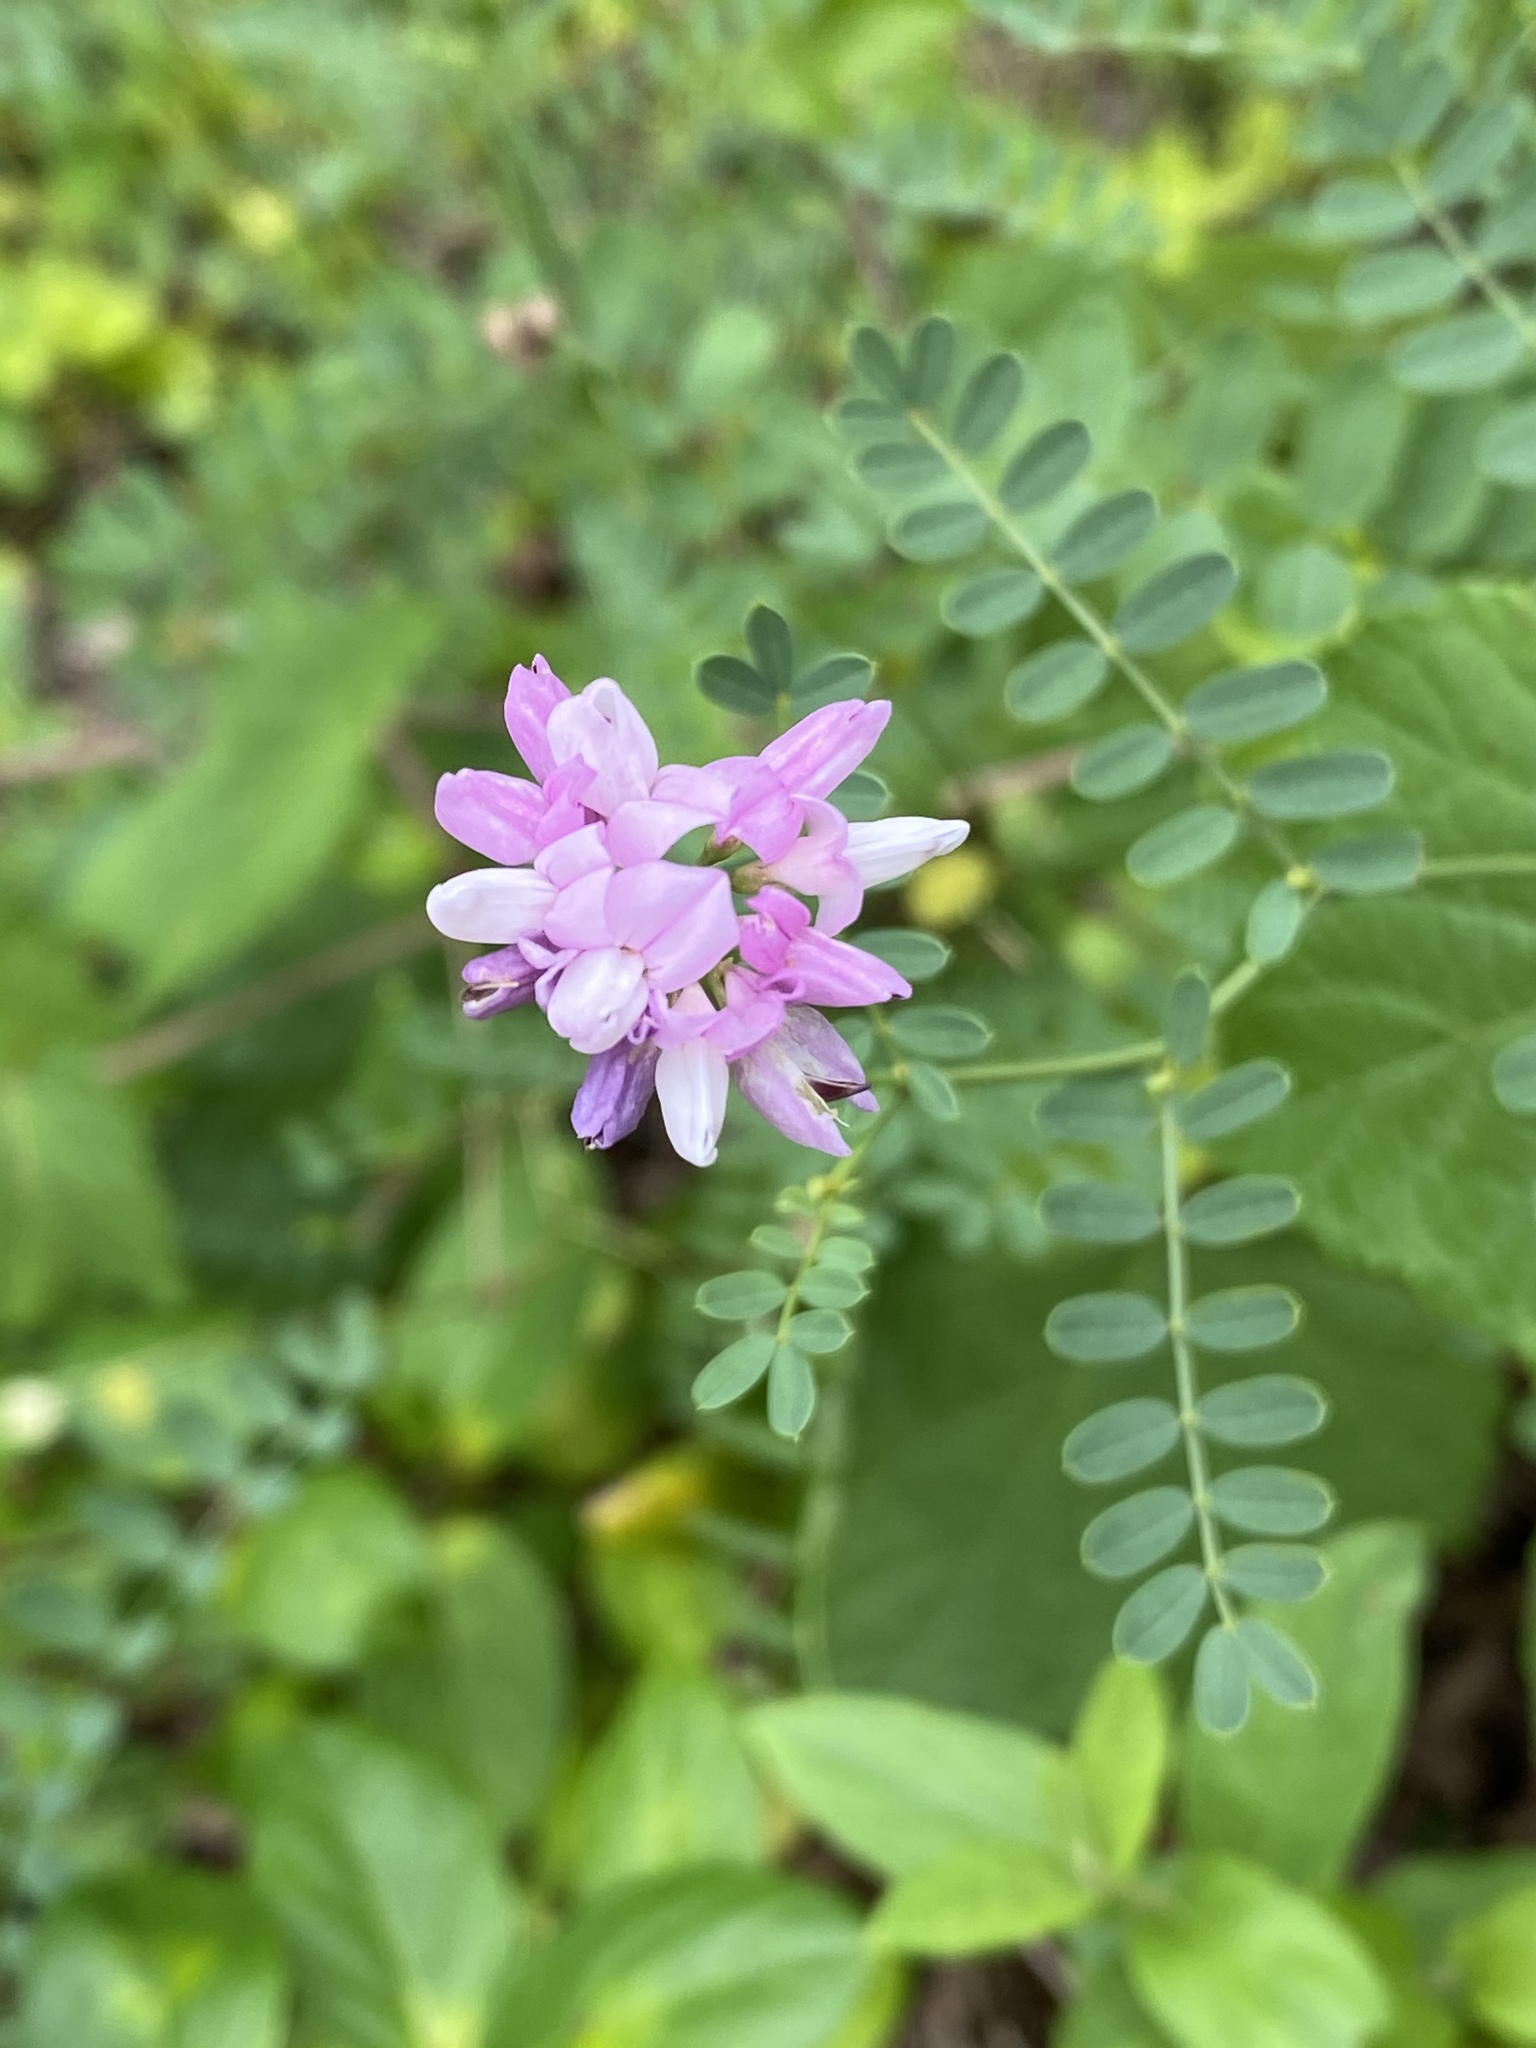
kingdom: Plantae
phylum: Tracheophyta
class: Magnoliopsida
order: Fabales
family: Fabaceae
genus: Coronilla
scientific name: Coronilla varia
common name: Crownvetch
